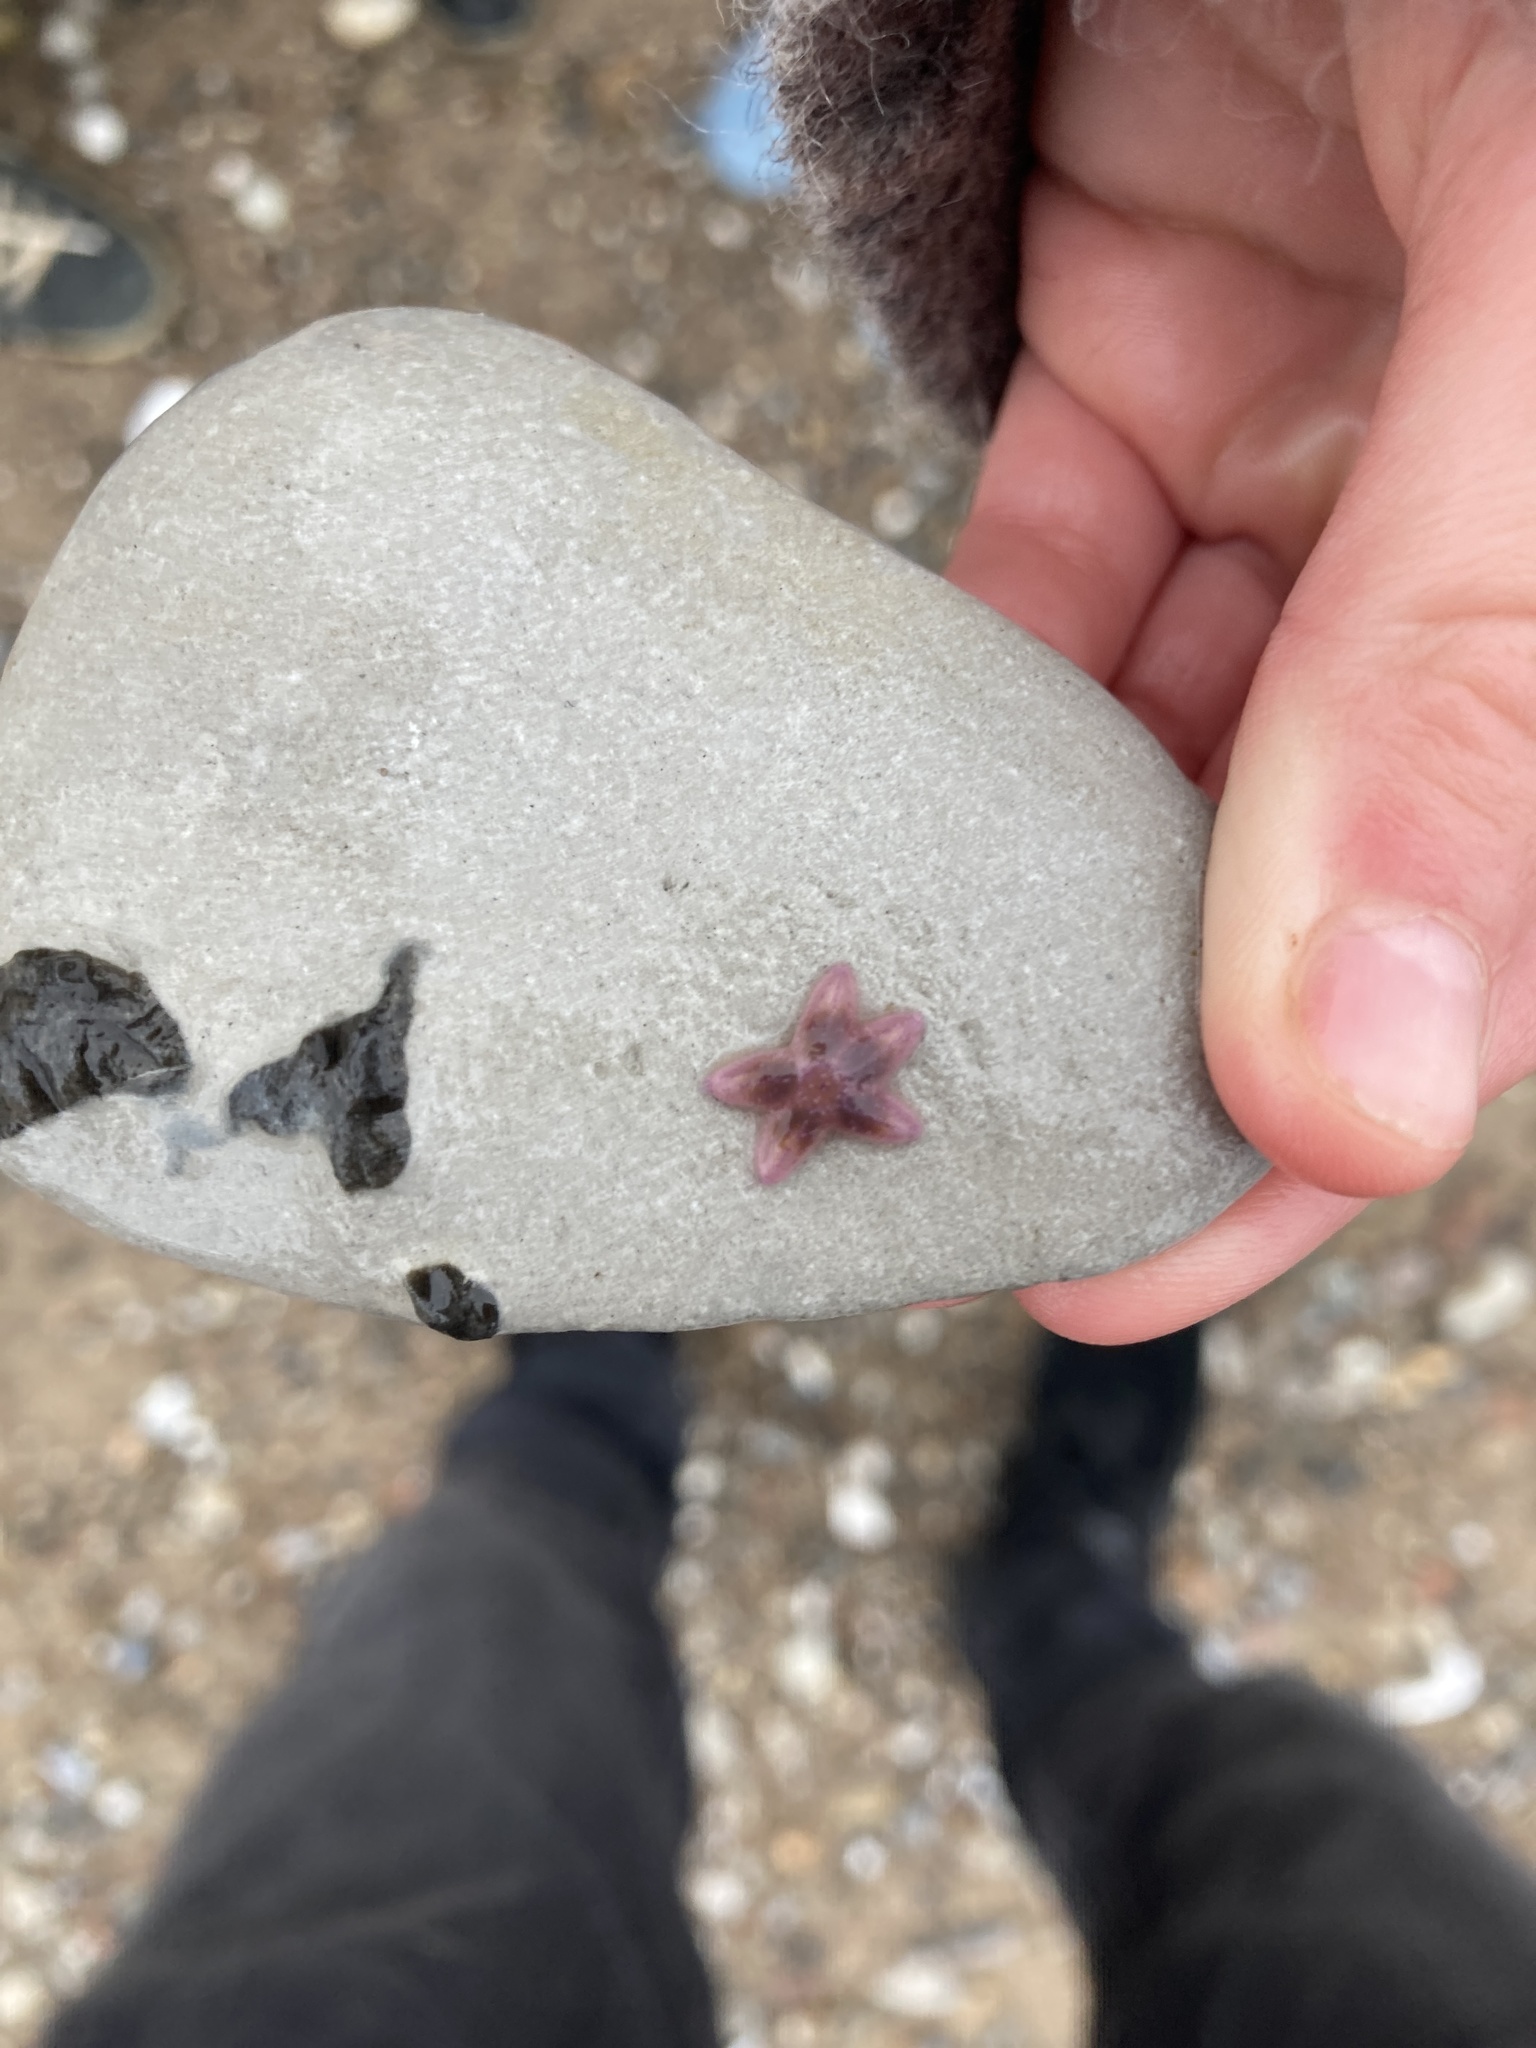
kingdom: Animalia
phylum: Echinodermata
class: Asteroidea
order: Forcipulatida
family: Asteriidae
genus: Asterias
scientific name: Asterias rubens
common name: Common starfish
